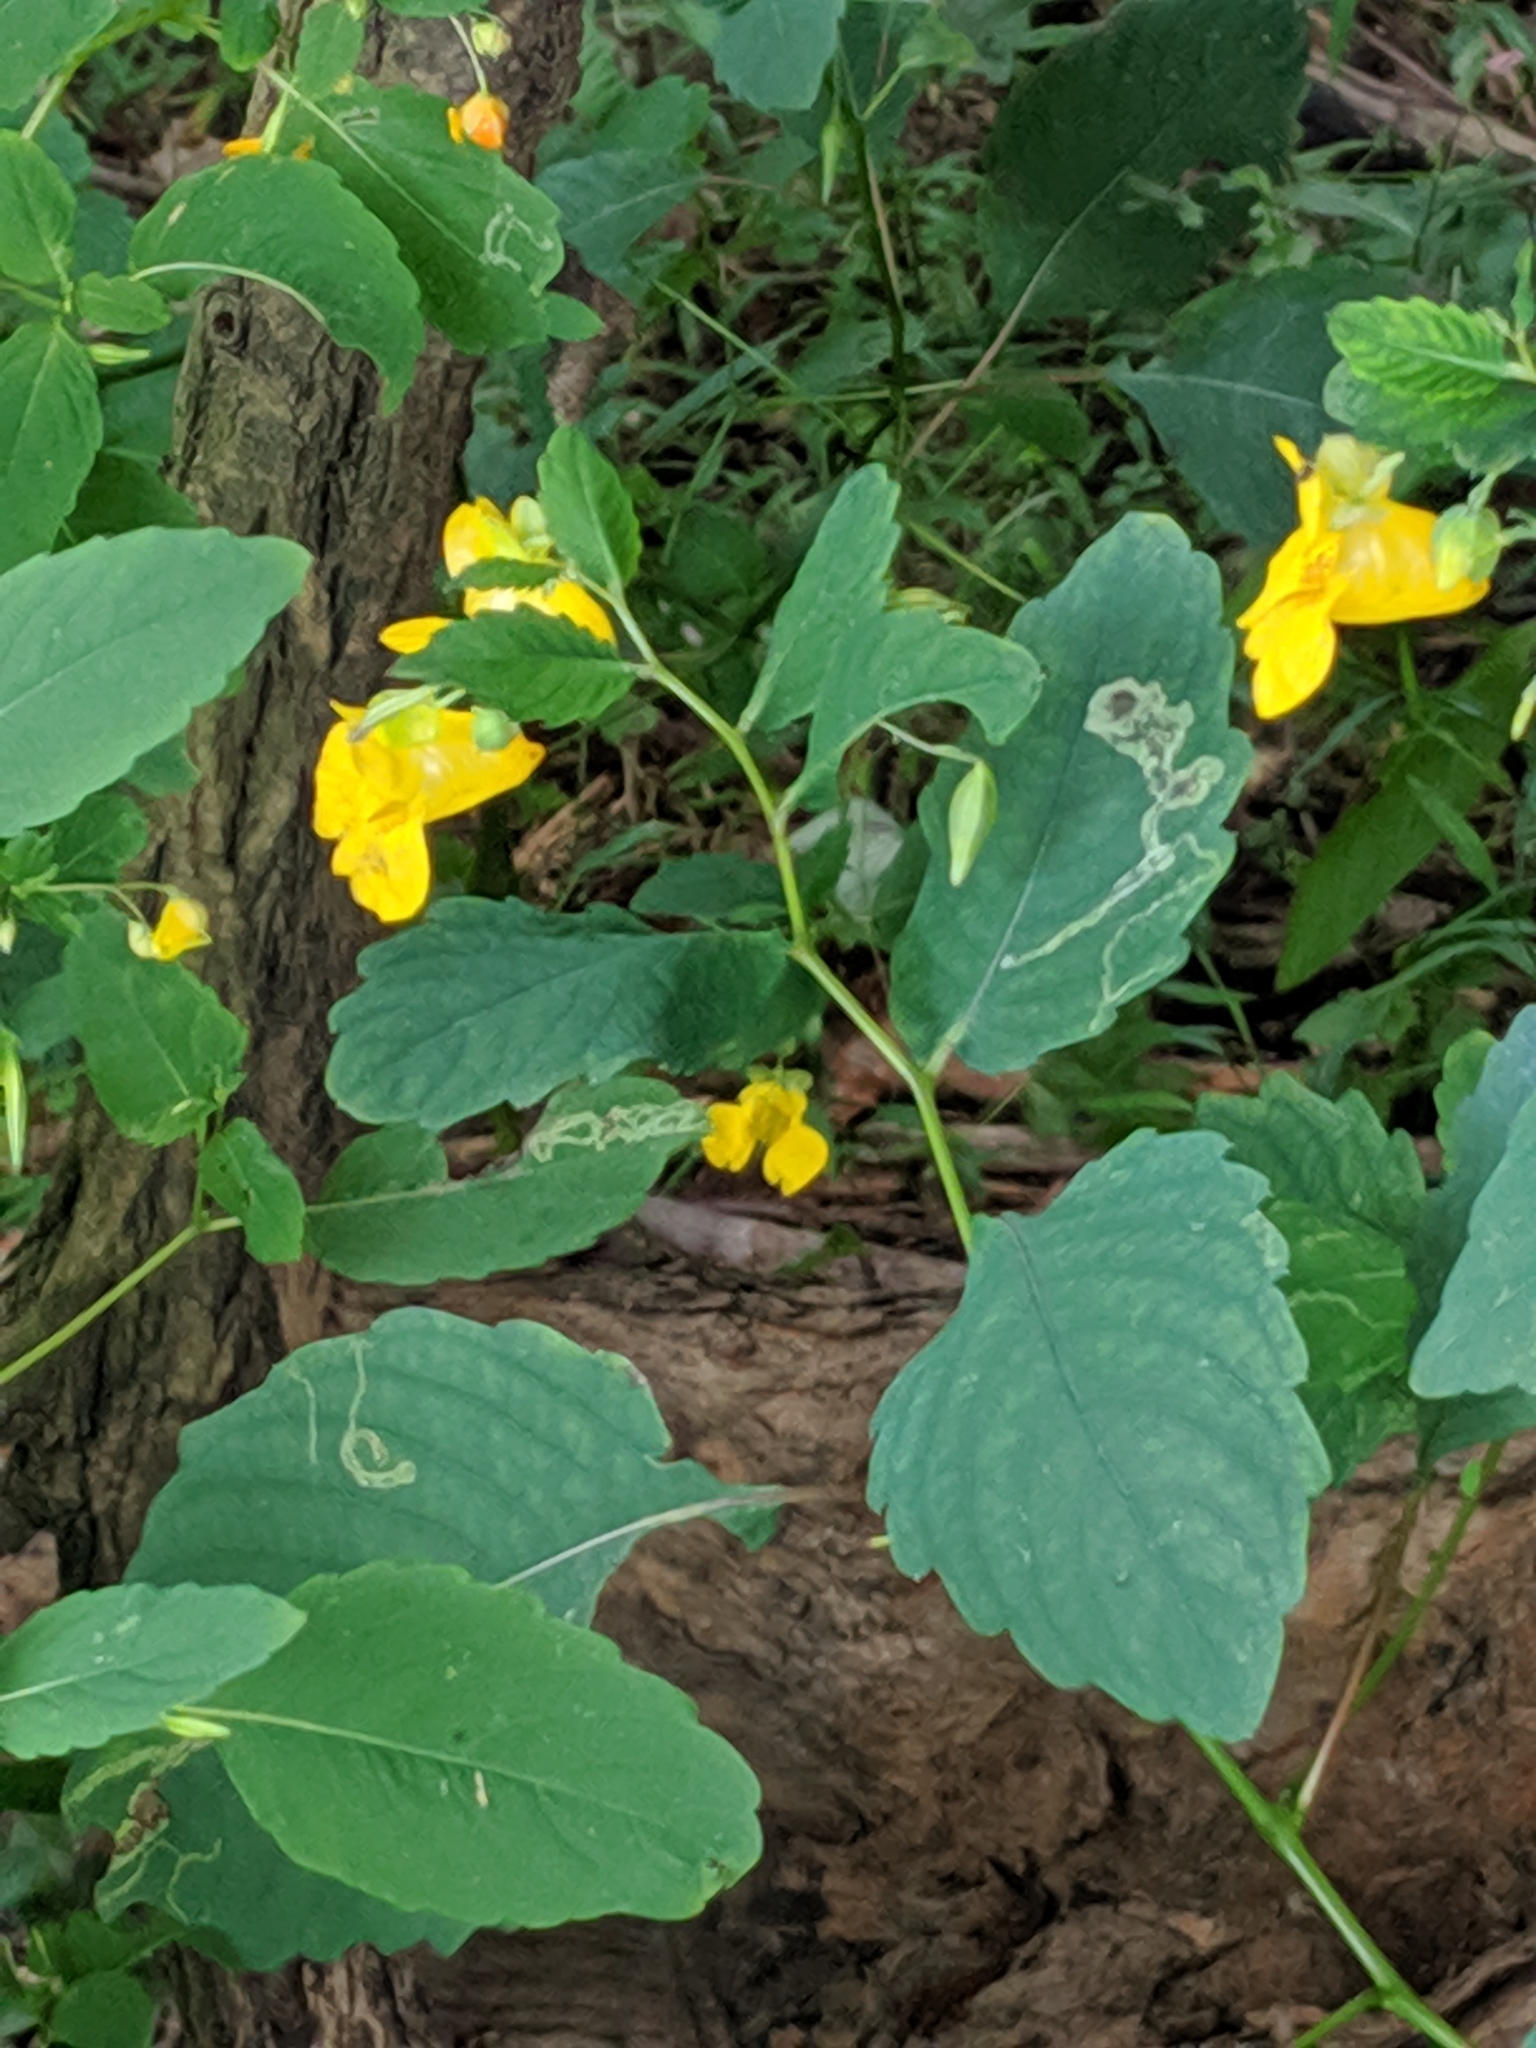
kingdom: Plantae
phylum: Tracheophyta
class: Magnoliopsida
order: Ericales
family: Balsaminaceae
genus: Impatiens
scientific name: Impatiens pallida
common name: Pale snapweed
